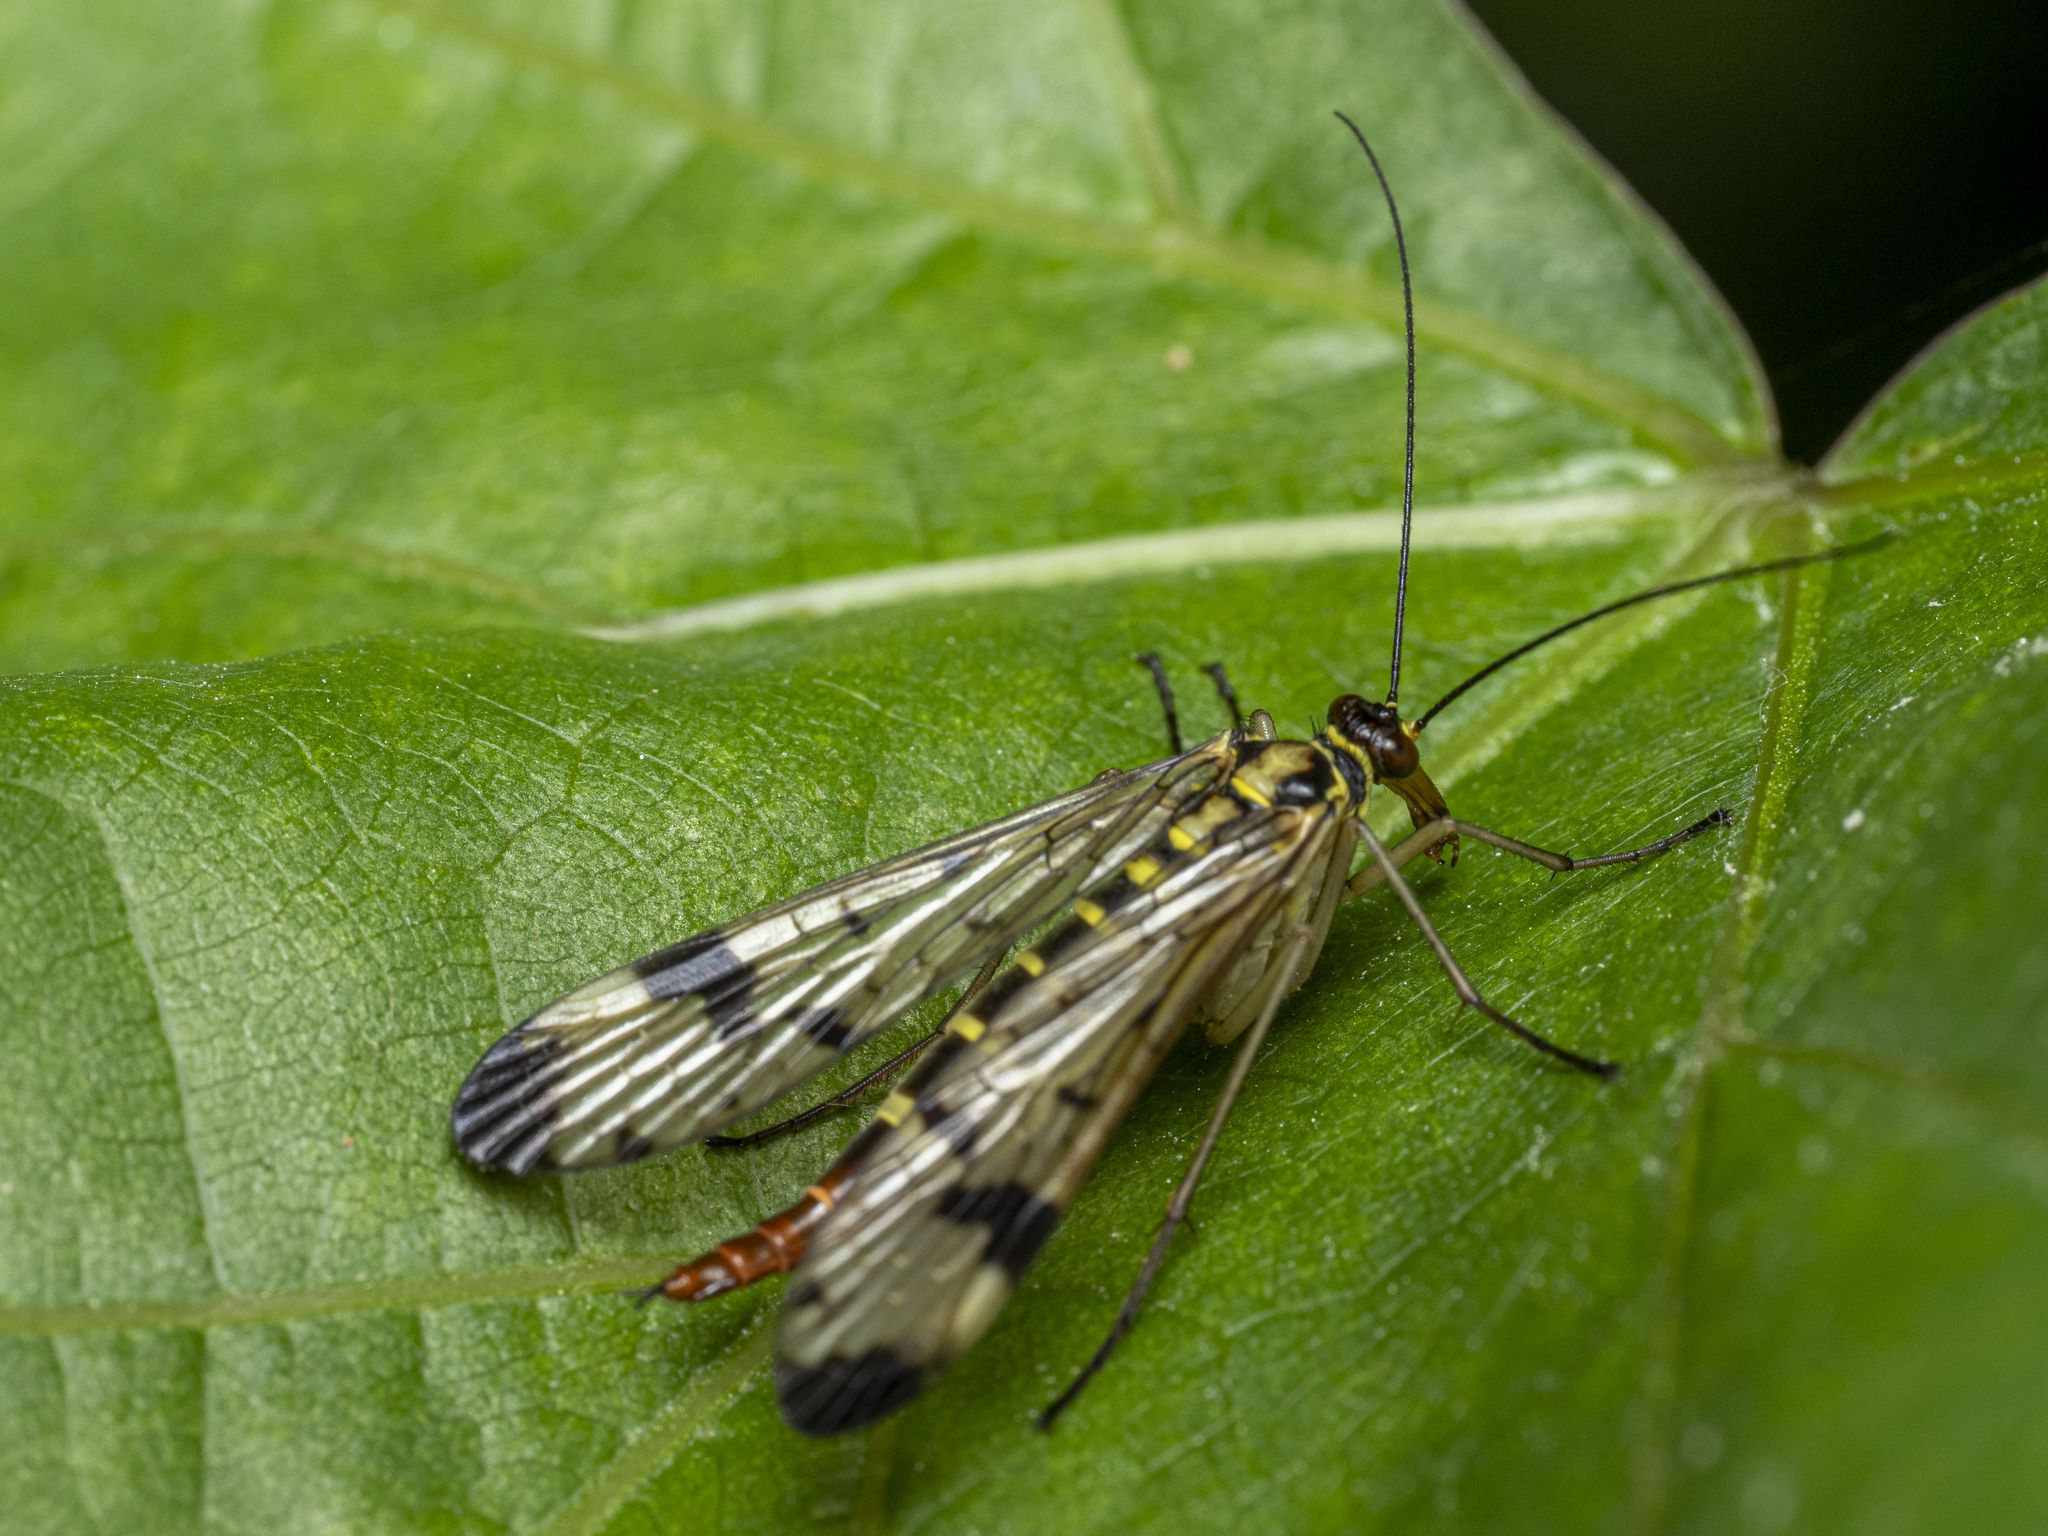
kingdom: Animalia
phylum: Arthropoda
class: Insecta
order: Mecoptera
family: Panorpidae
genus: Panorpa
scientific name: Panorpa communis
